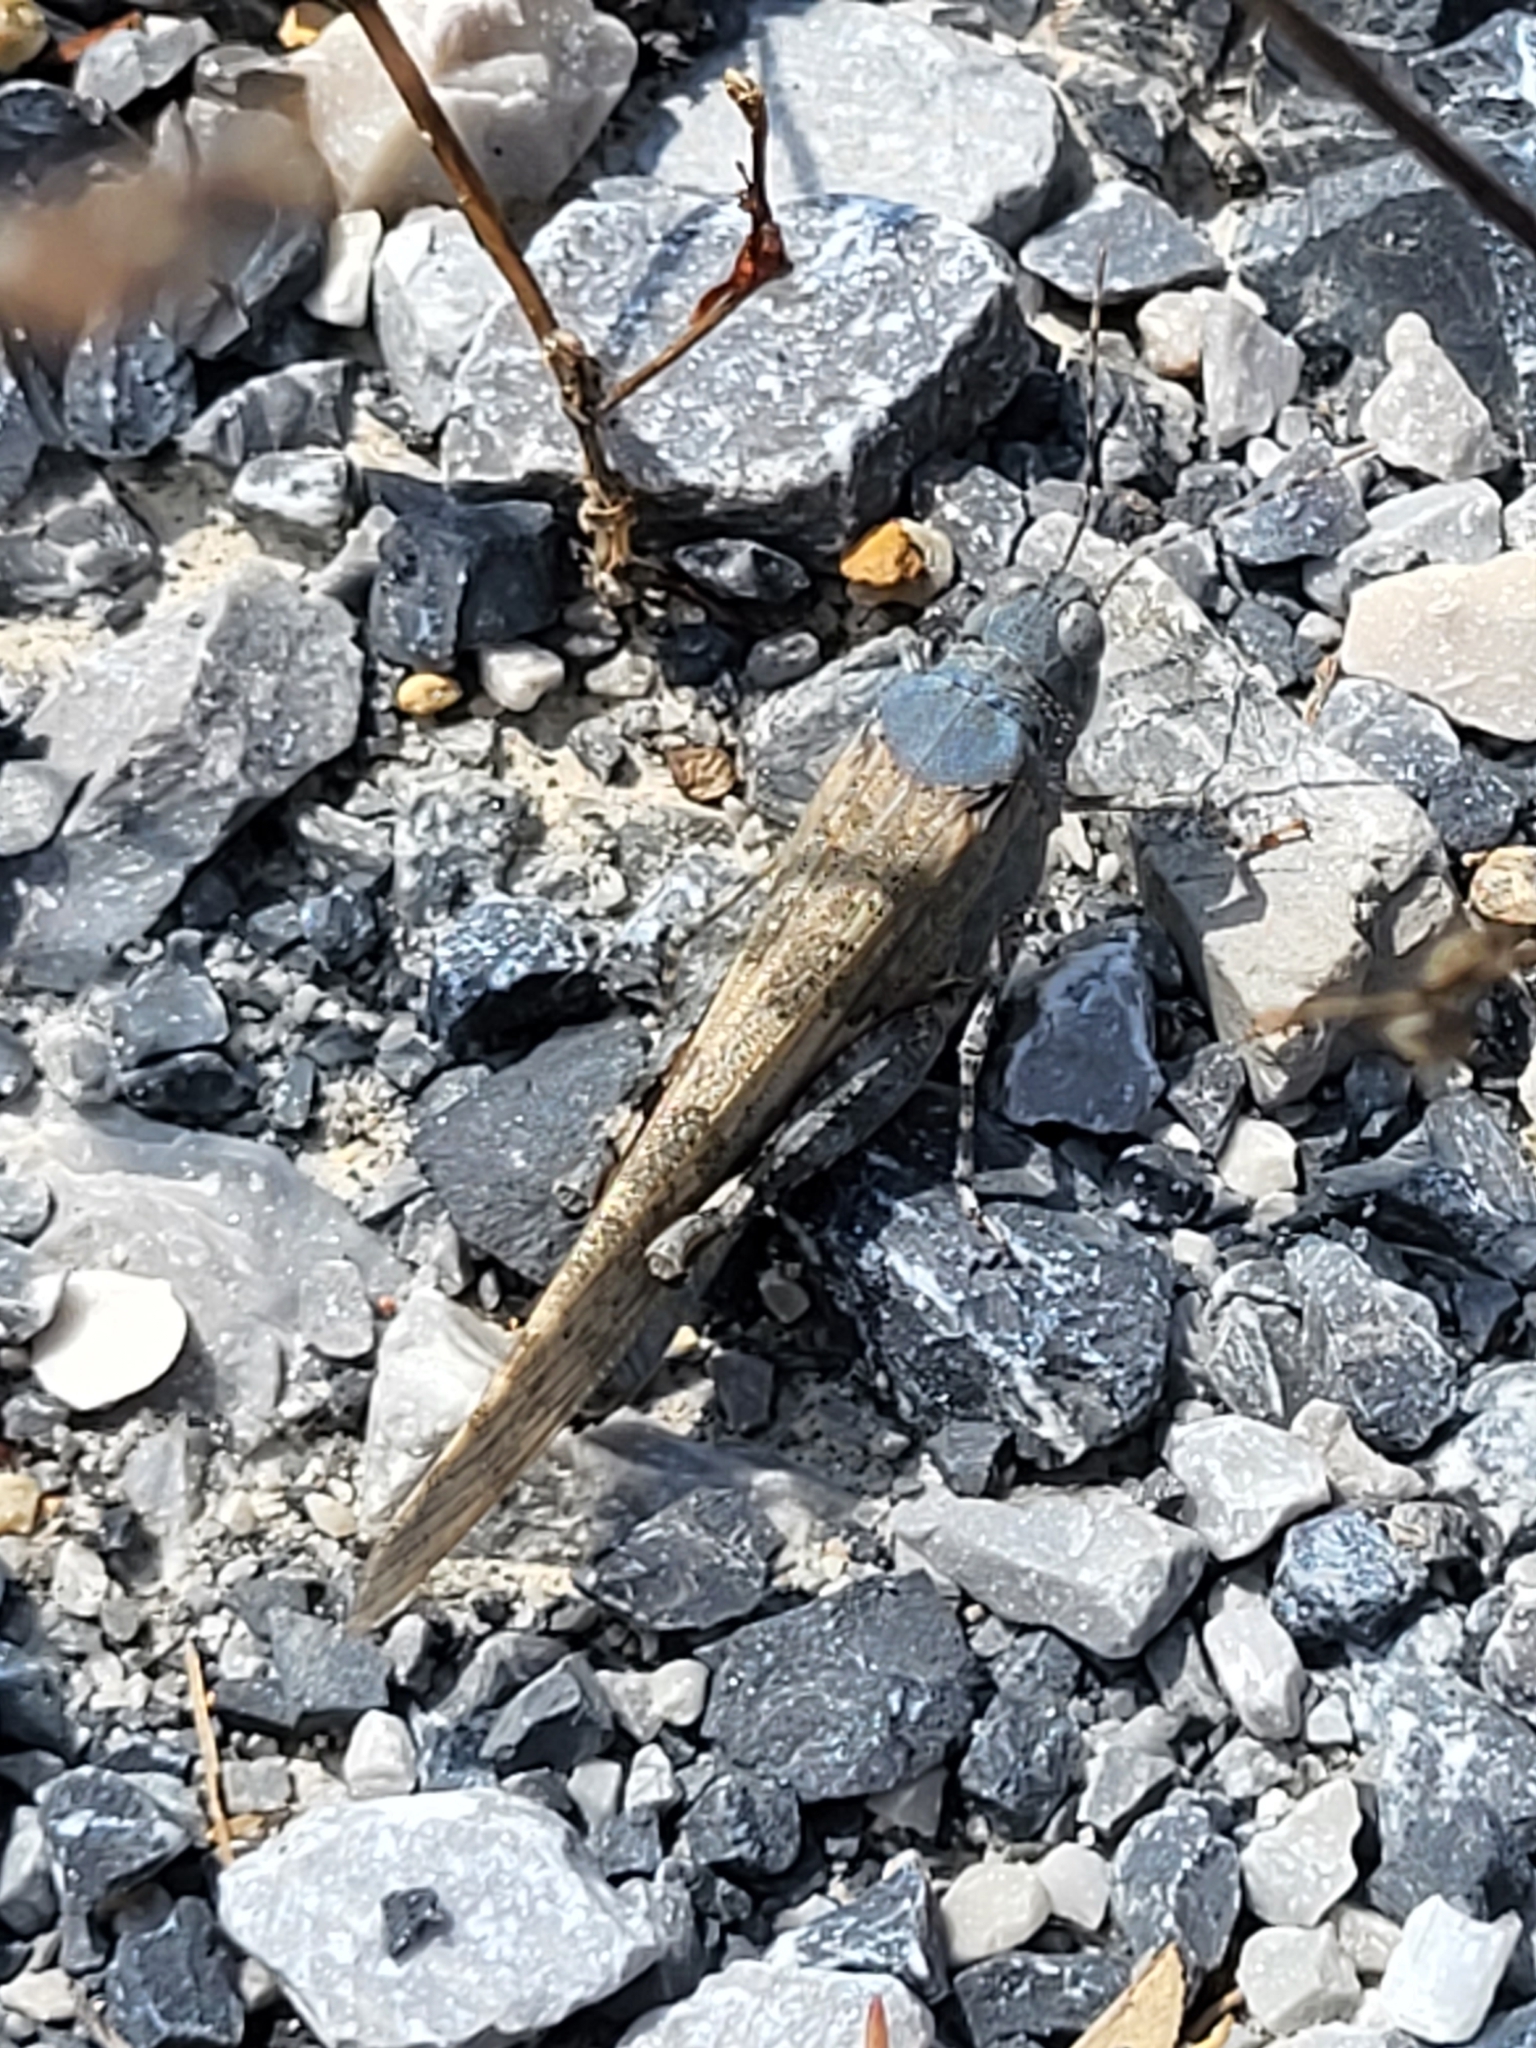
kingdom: Animalia
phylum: Arthropoda
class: Insecta
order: Orthoptera
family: Acrididae
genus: Sphingonotus
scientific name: Sphingonotus
